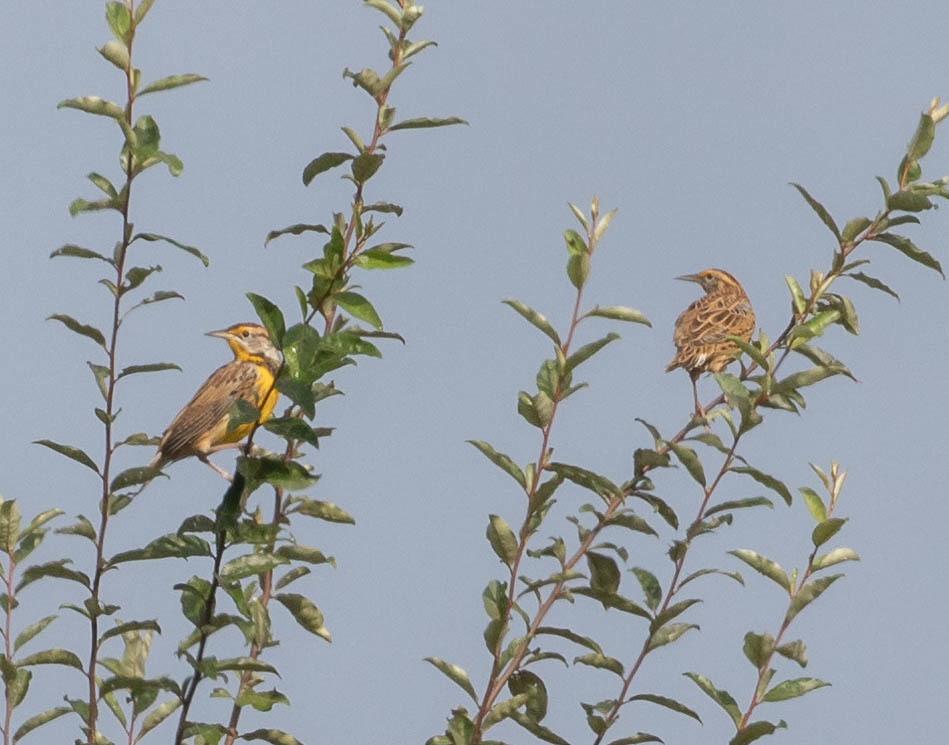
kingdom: Animalia
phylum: Chordata
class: Aves
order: Passeriformes
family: Icteridae
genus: Sturnella
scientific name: Sturnella magna
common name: Eastern meadowlark
